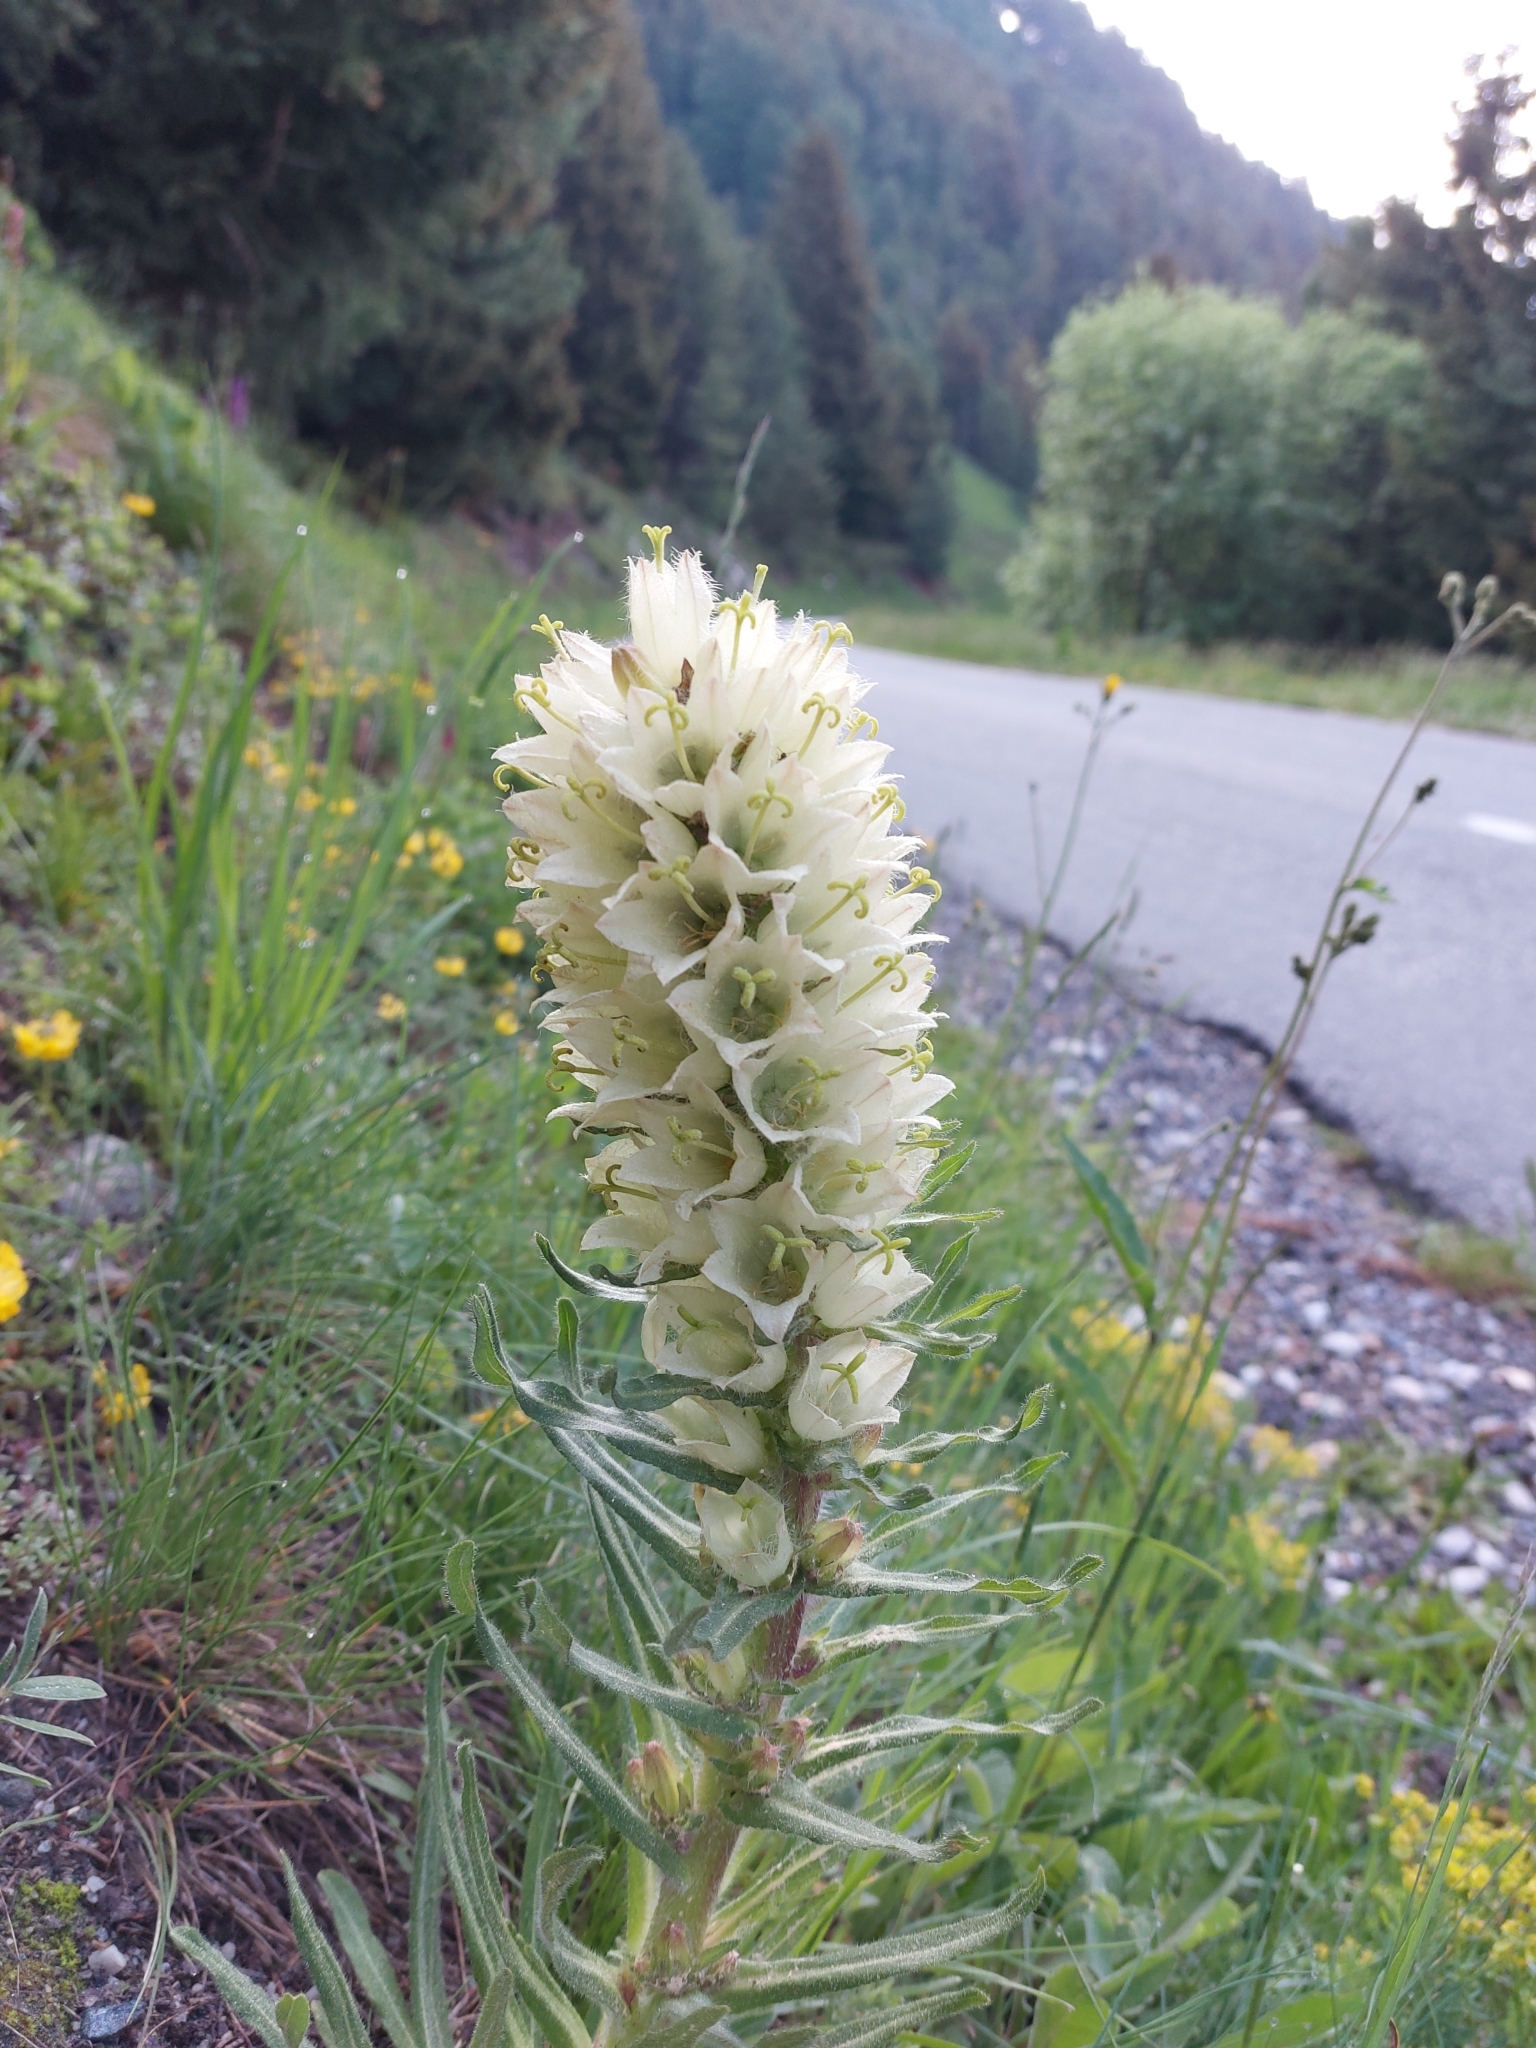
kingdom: Plantae
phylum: Tracheophyta
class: Magnoliopsida
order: Asterales
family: Campanulaceae
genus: Campanula
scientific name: Campanula thyrsoides
